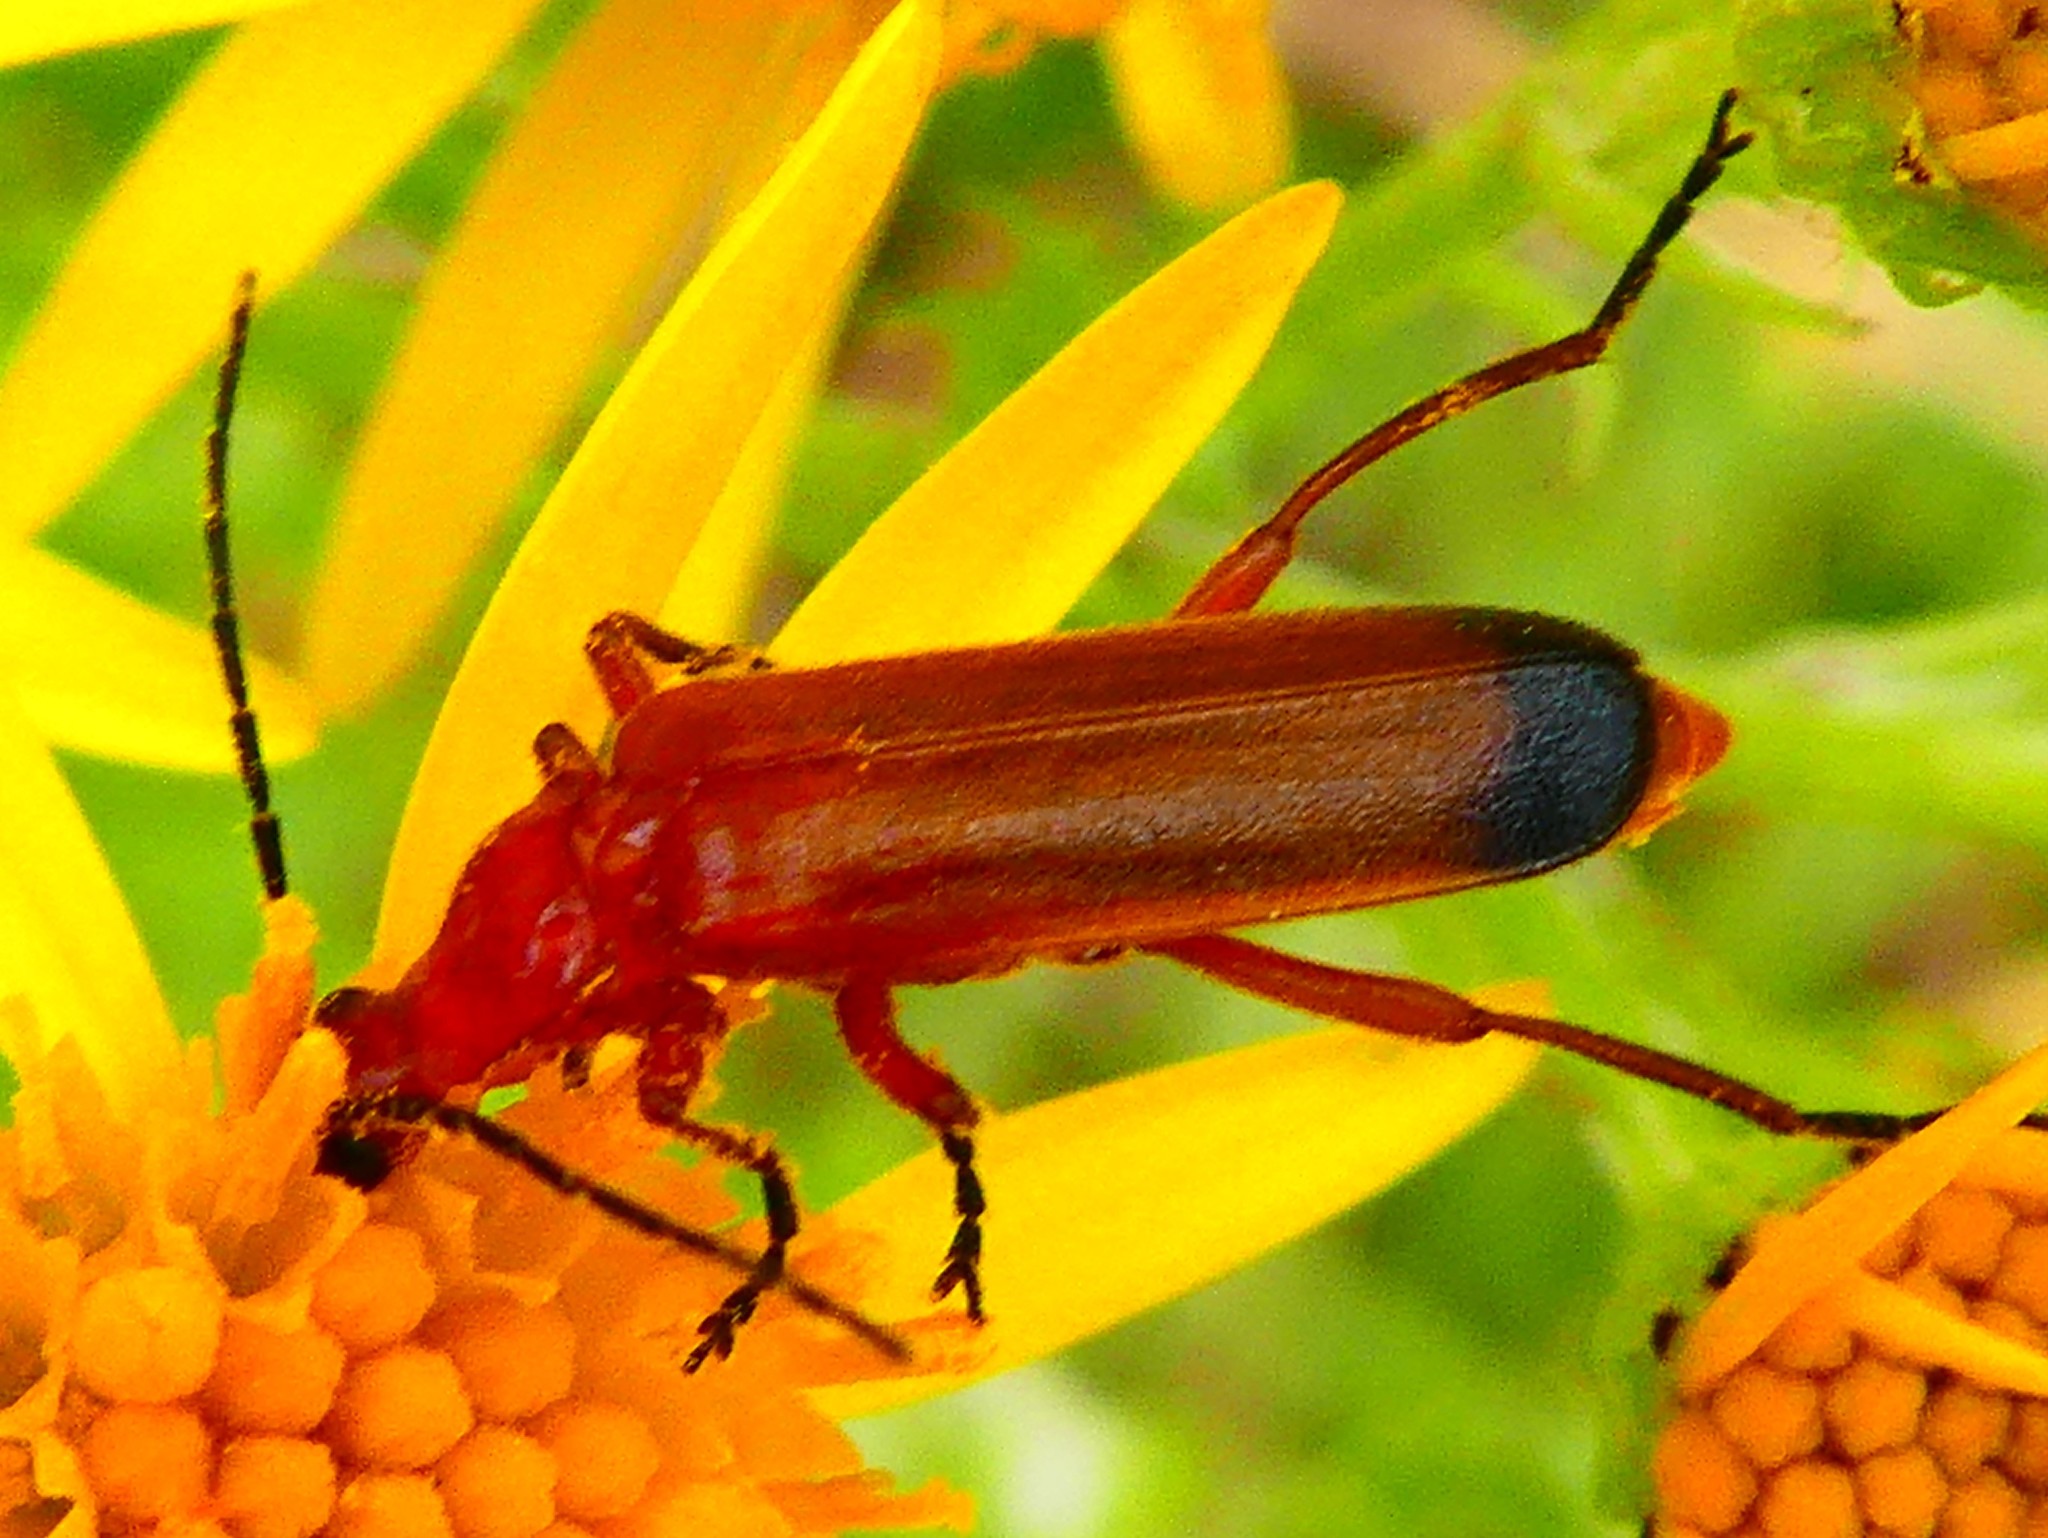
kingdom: Animalia
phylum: Arthropoda
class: Insecta
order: Coleoptera
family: Cantharidae
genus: Rhagonycha
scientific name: Rhagonycha fulva
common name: Common red soldier beetle
